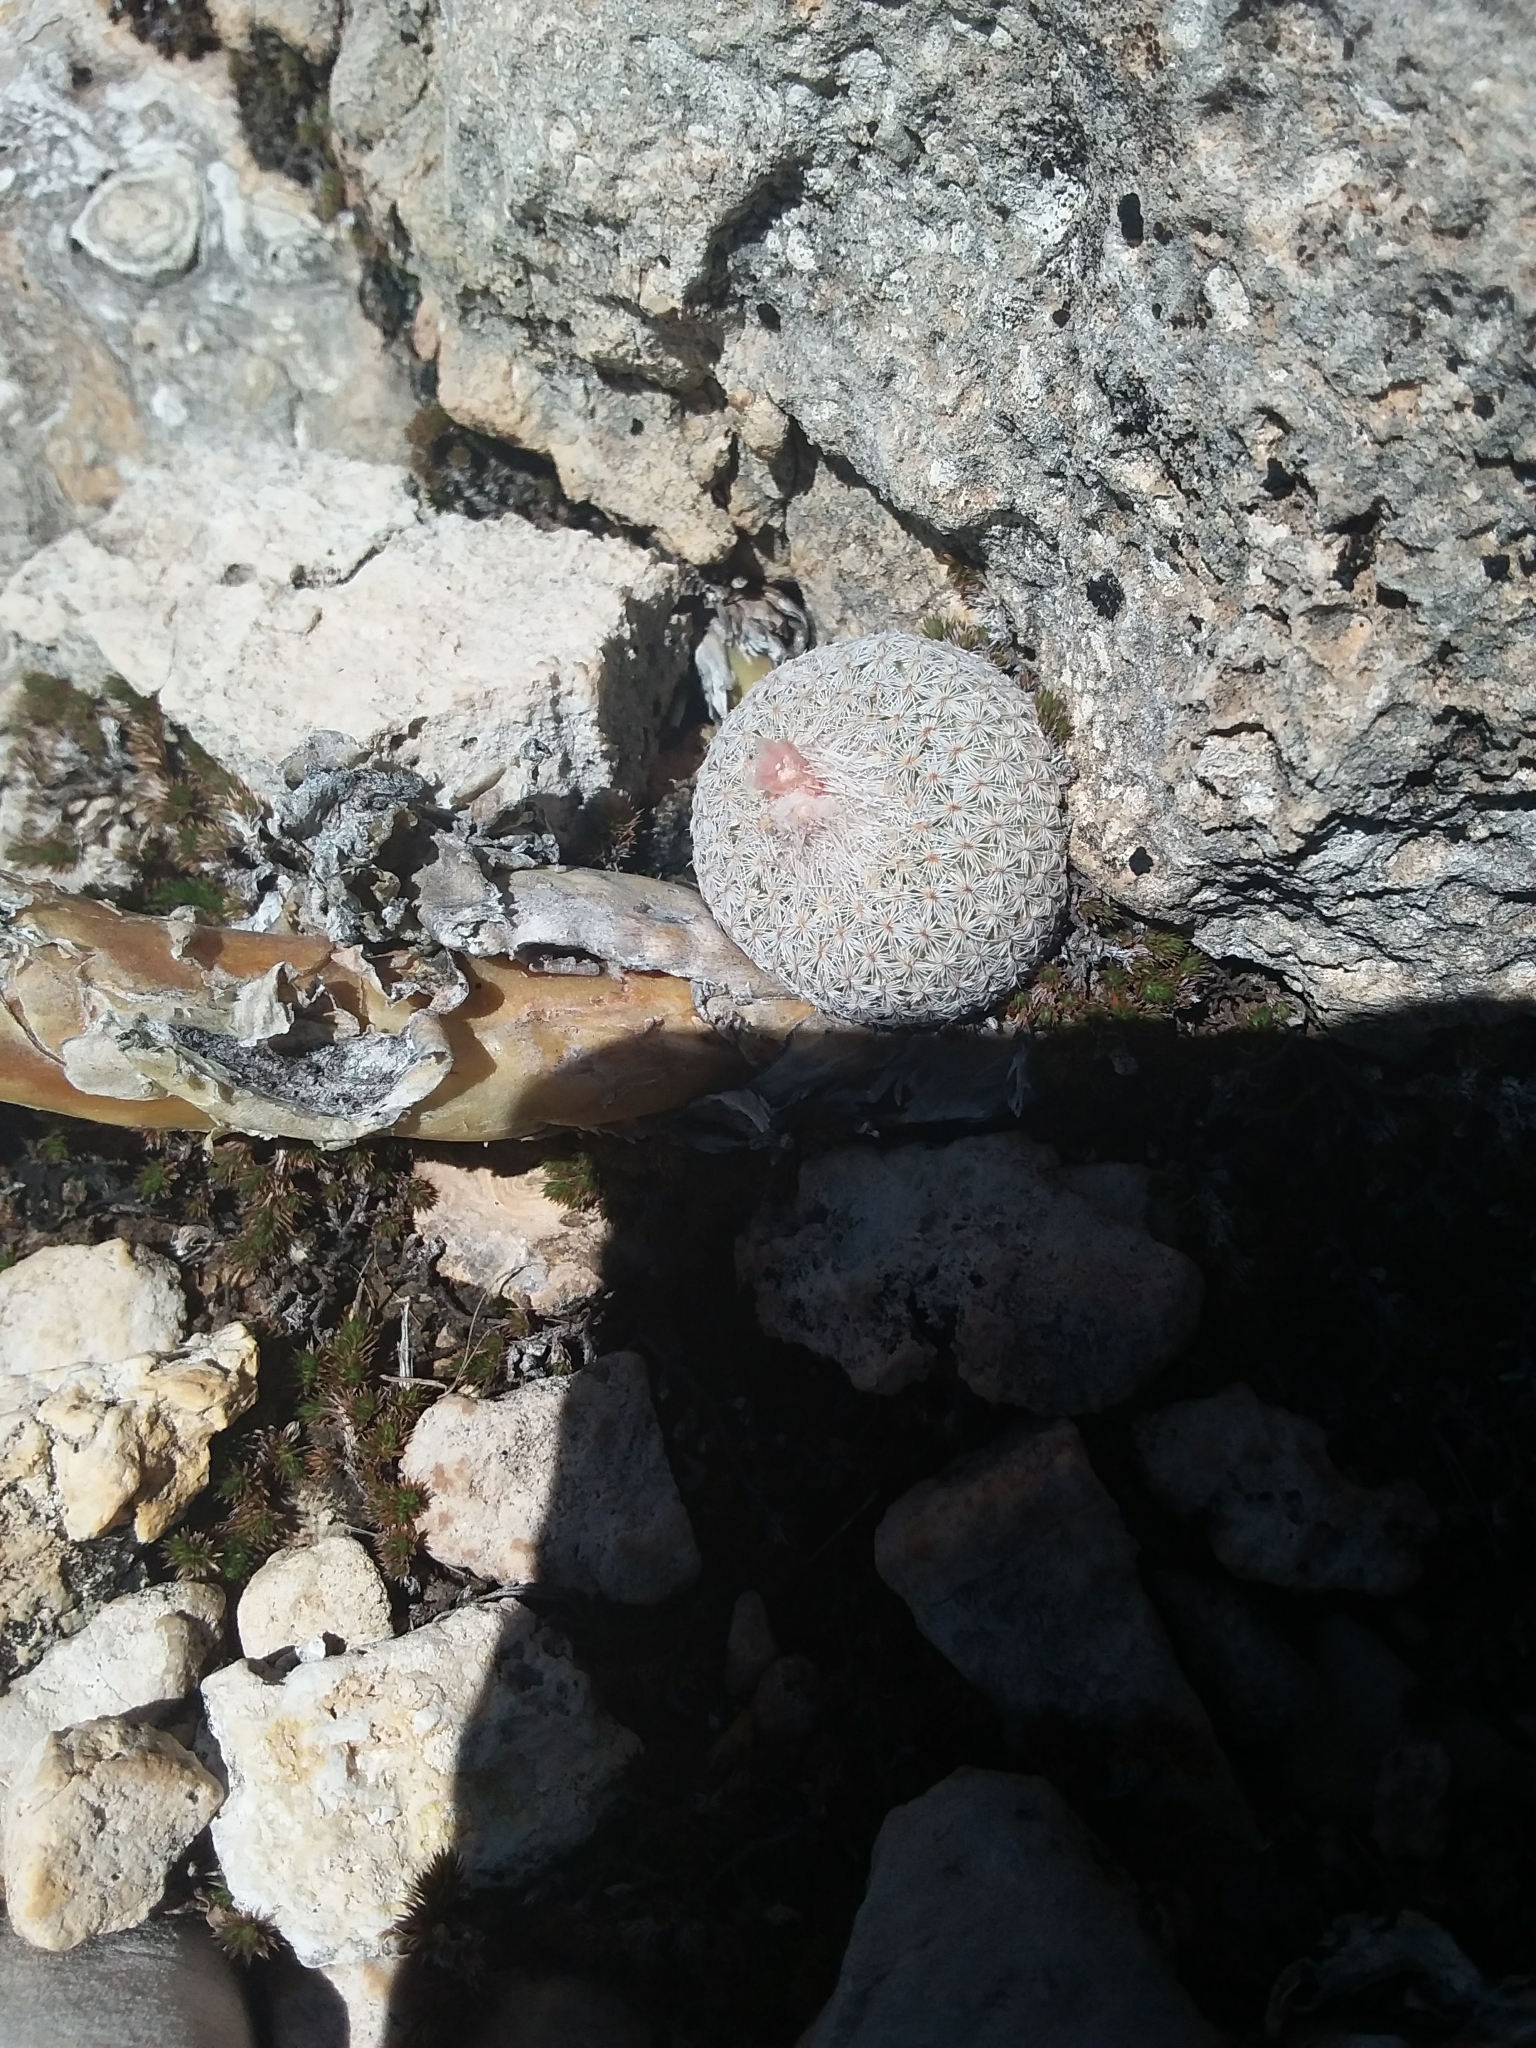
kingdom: Plantae
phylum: Tracheophyta
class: Magnoliopsida
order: Caryophyllales
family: Cactaceae
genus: Epithelantha
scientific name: Epithelantha micromeris
